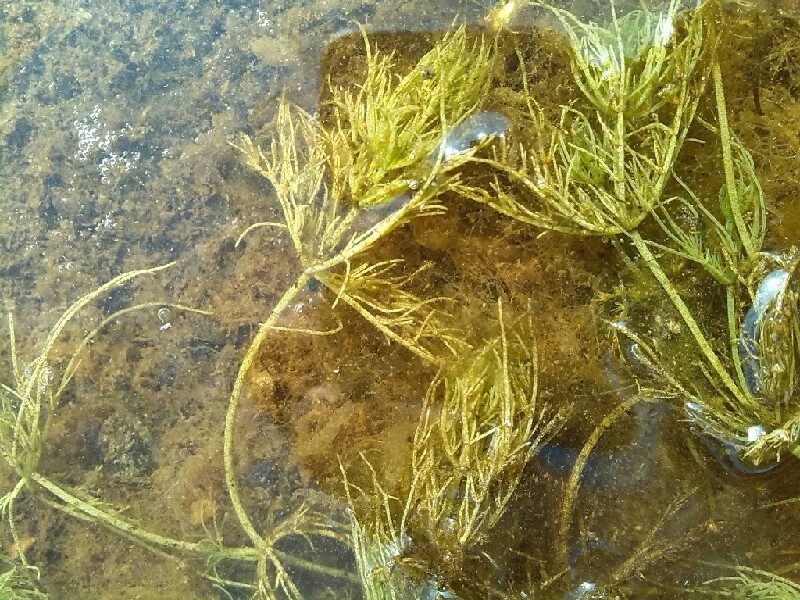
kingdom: Plantae
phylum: Charophyta
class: Charophyceae
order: Charales
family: Characeae
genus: Chara
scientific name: Chara vulgaris
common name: Common stonewort
